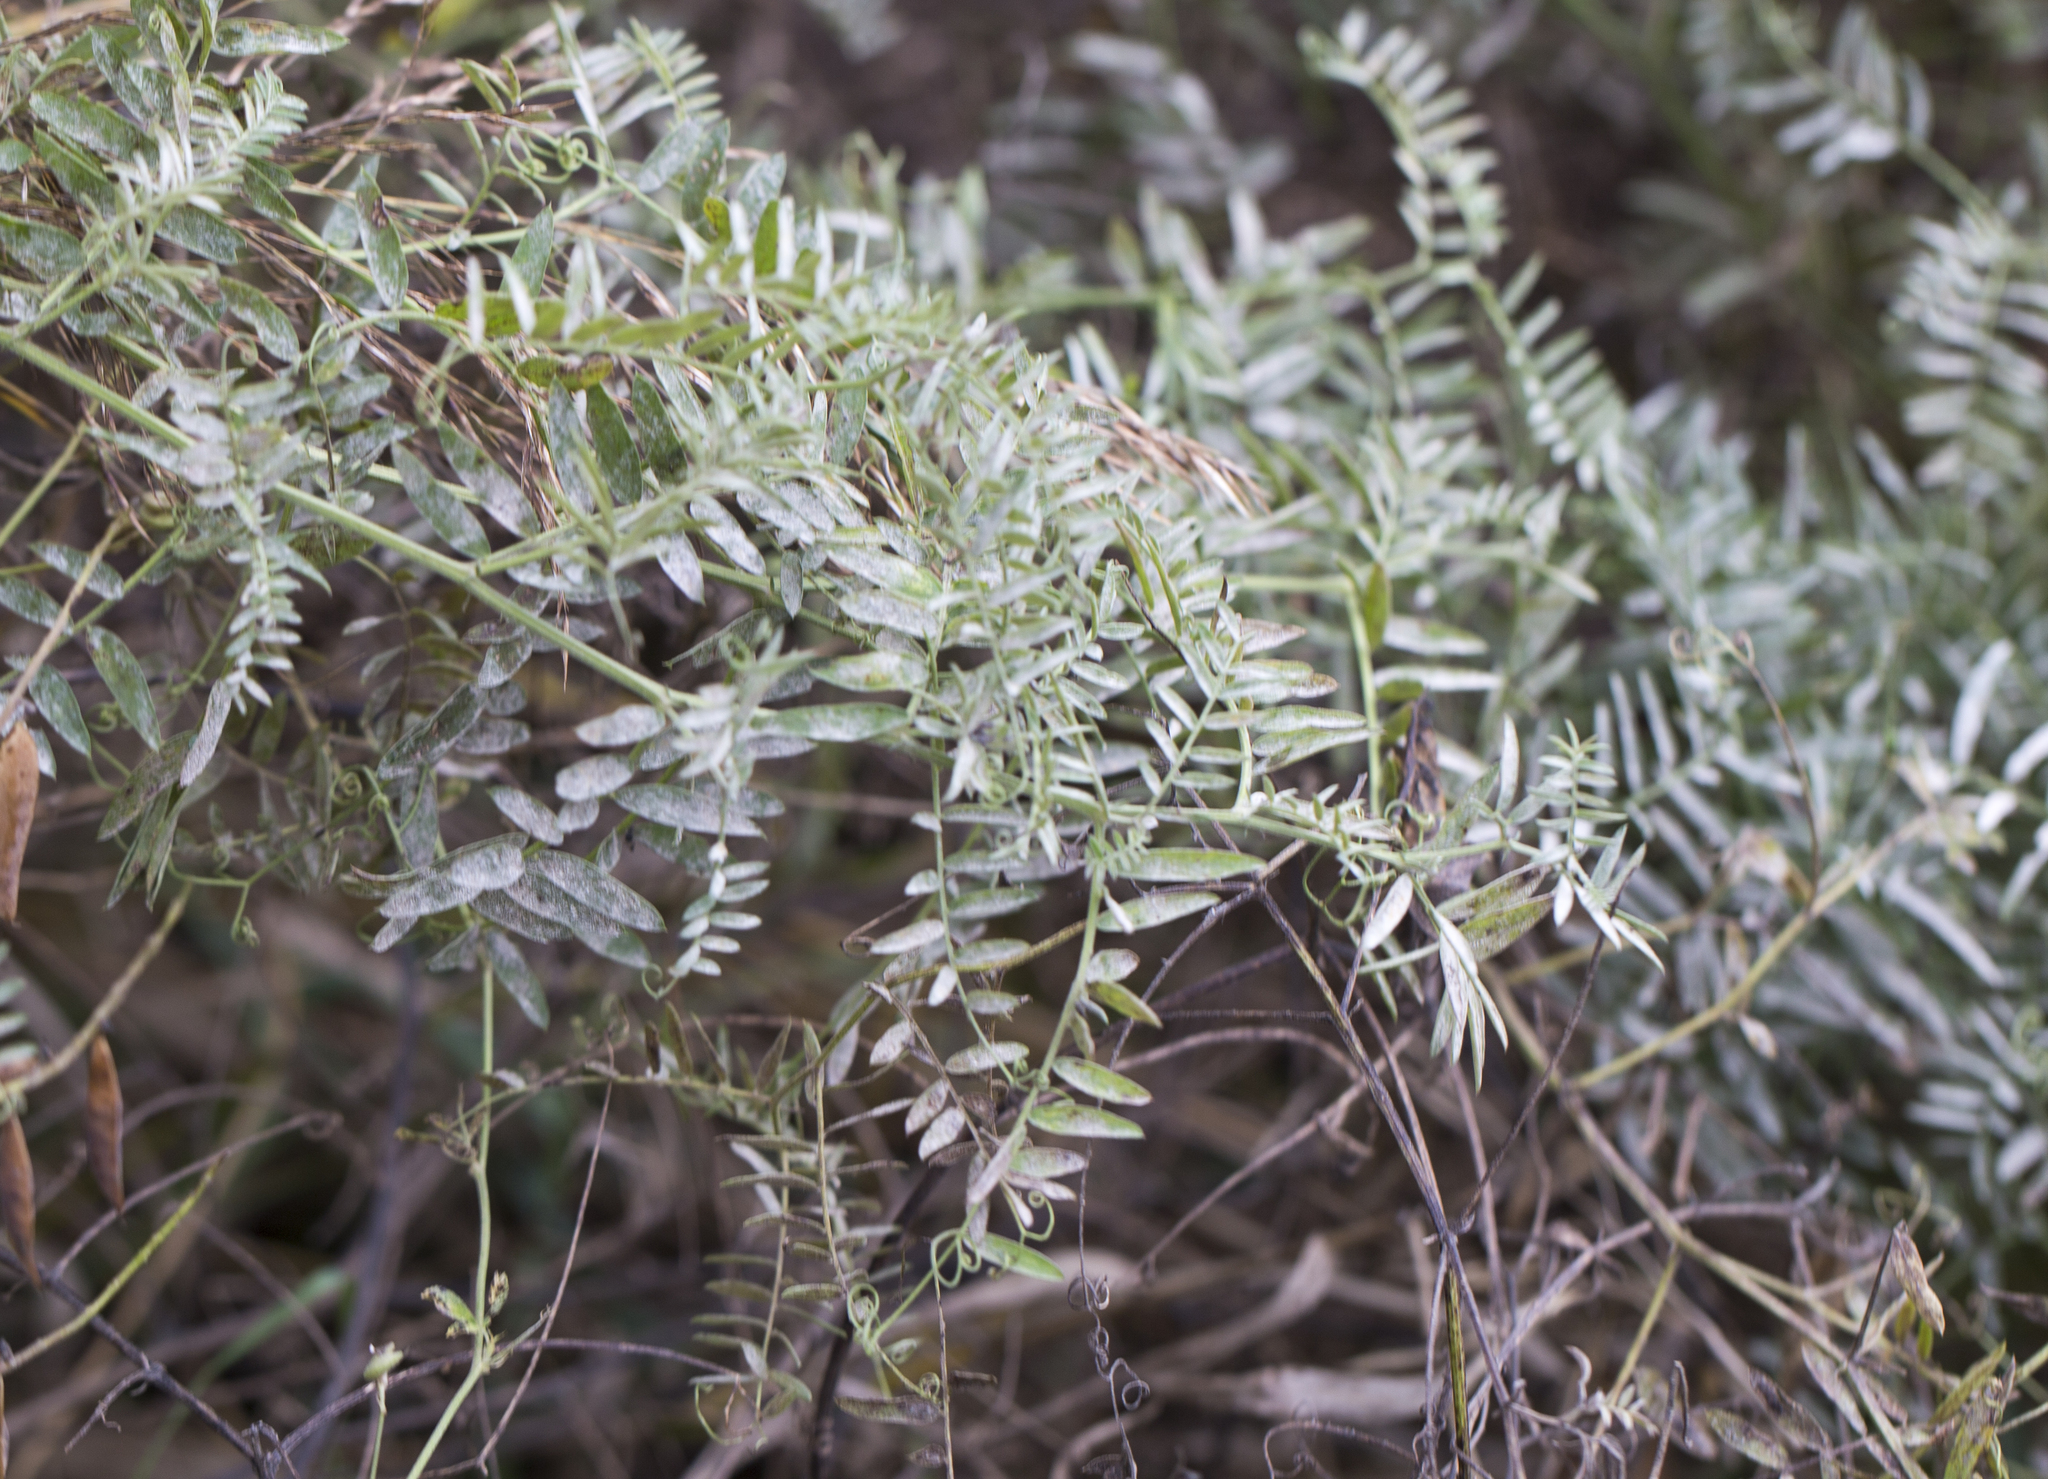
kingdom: Plantae
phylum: Tracheophyta
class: Magnoliopsida
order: Fabales
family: Fabaceae
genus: Vicia
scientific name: Vicia cracca
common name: Bird vetch
